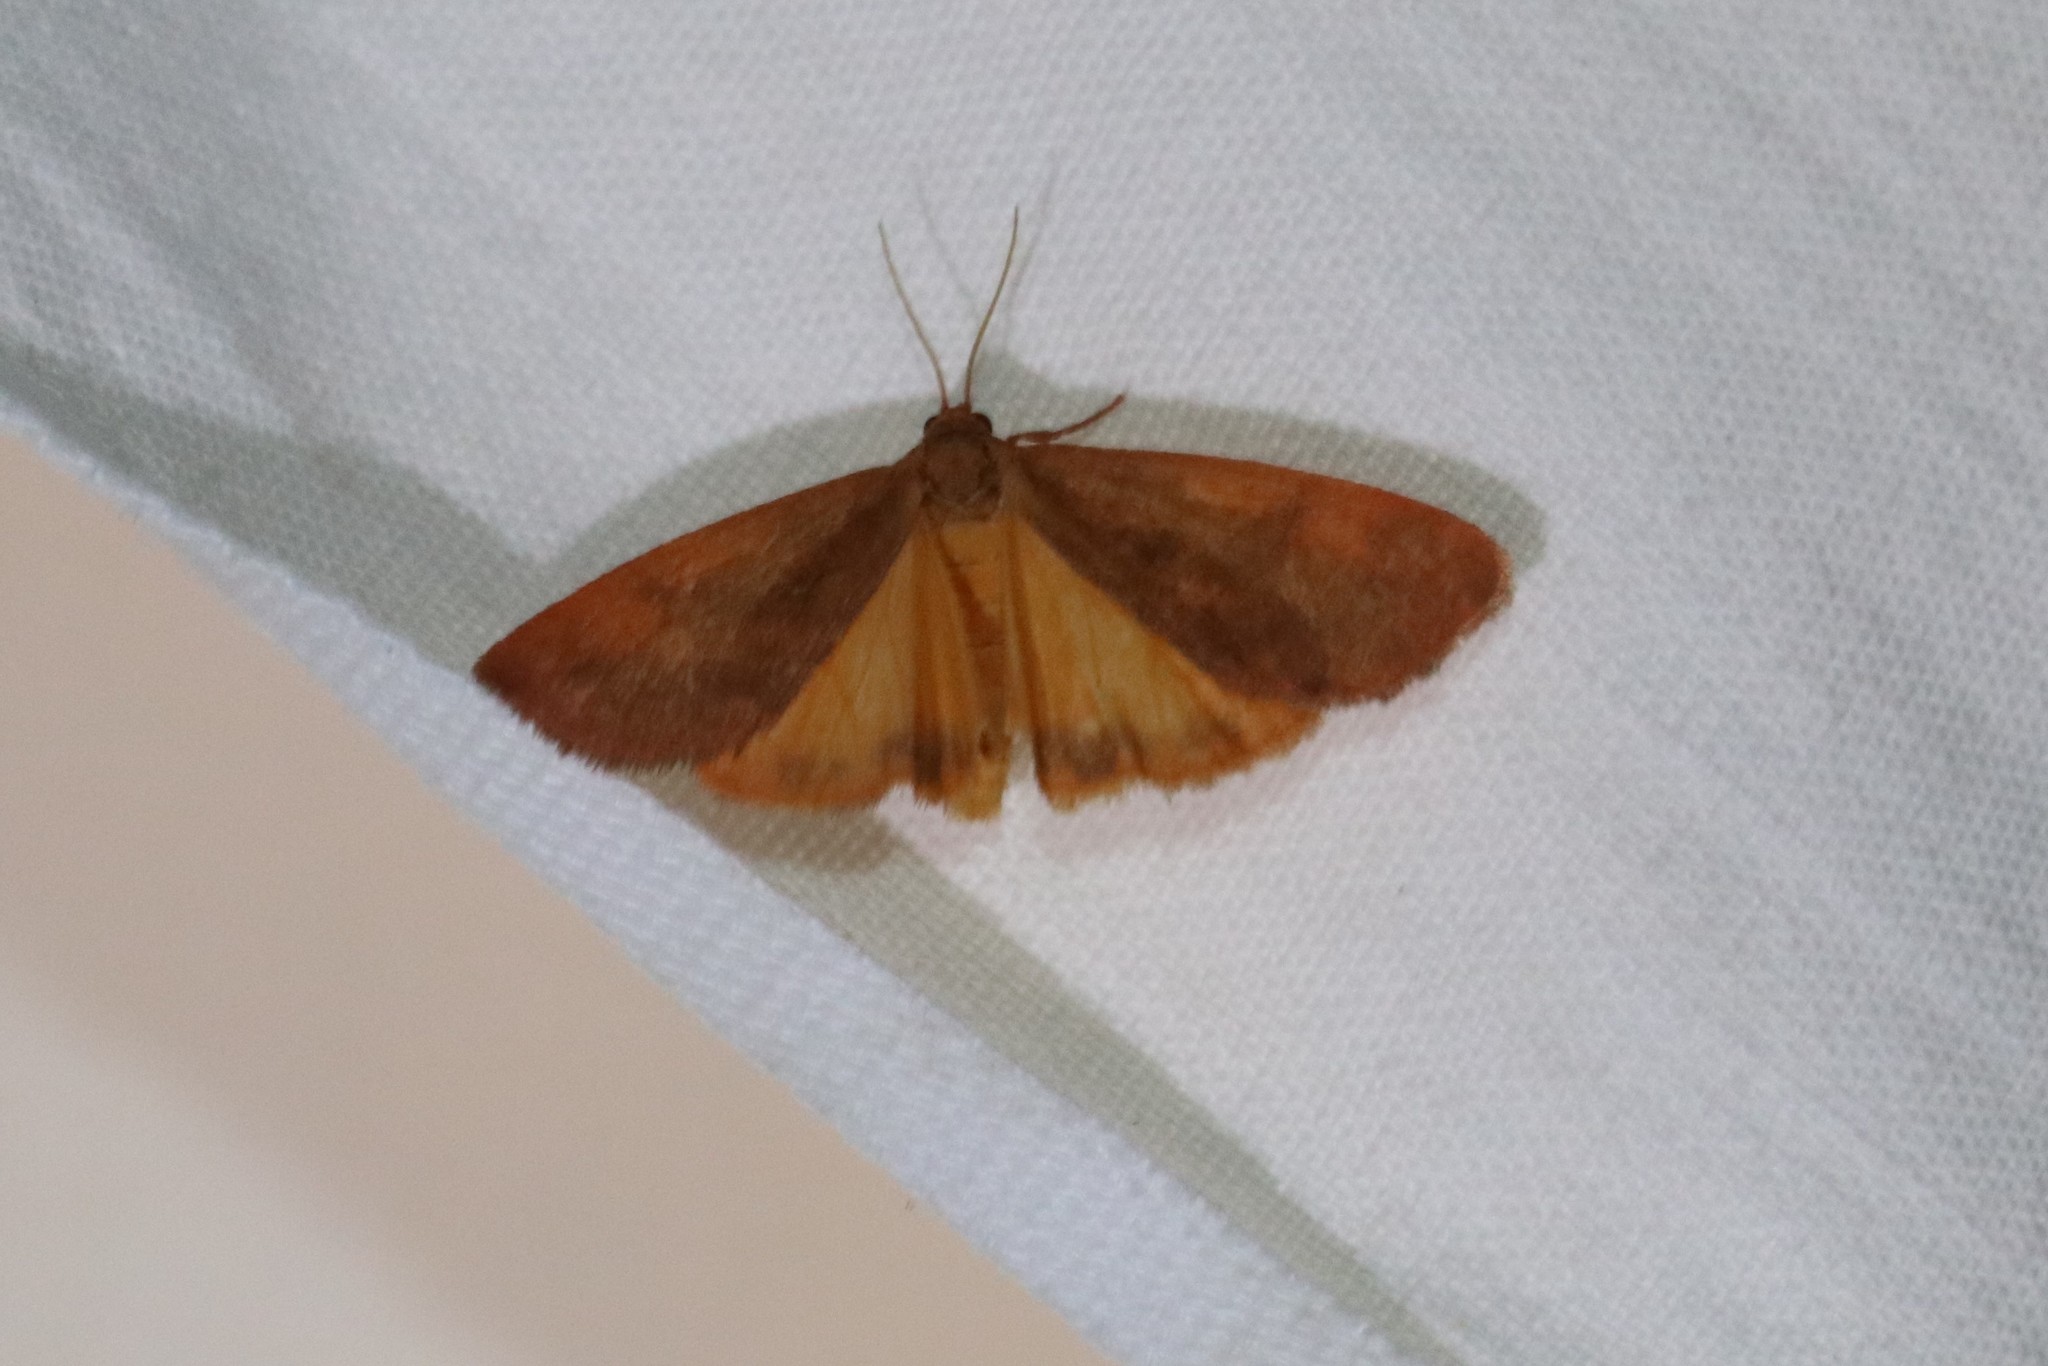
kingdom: Animalia
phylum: Arthropoda
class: Insecta
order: Lepidoptera
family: Erebidae
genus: Virbia
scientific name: Virbia ferruginosa
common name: Rusty virbia moth
